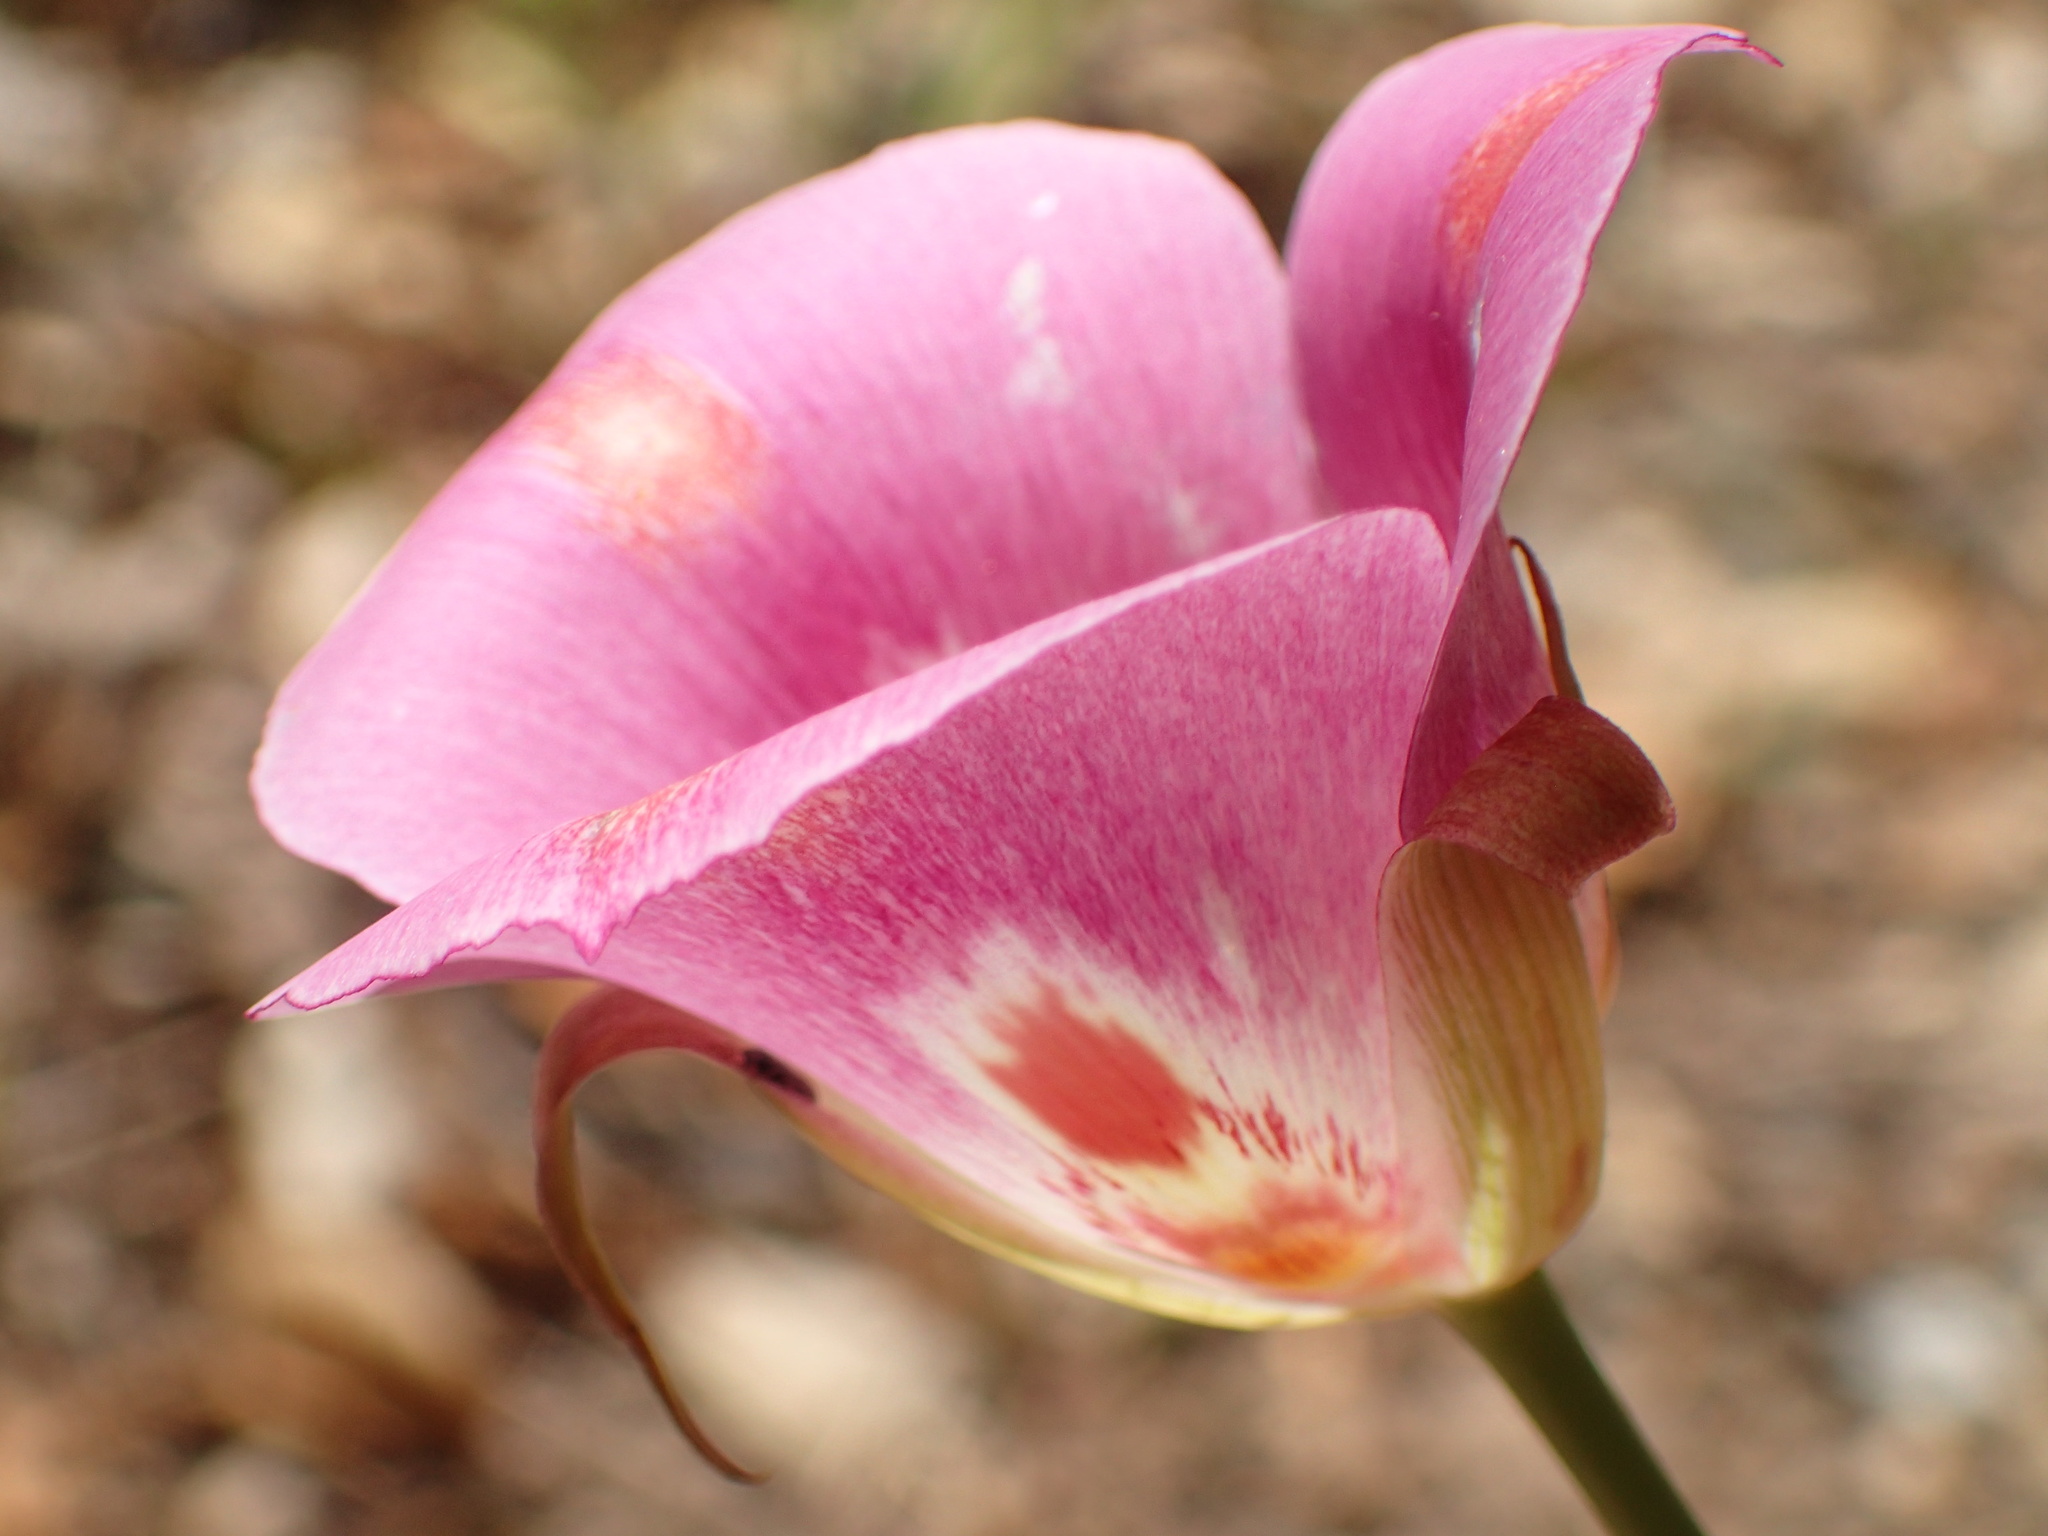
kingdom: Plantae
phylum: Tracheophyta
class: Liliopsida
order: Liliales
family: Liliaceae
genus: Calochortus
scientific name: Calochortus venustus
